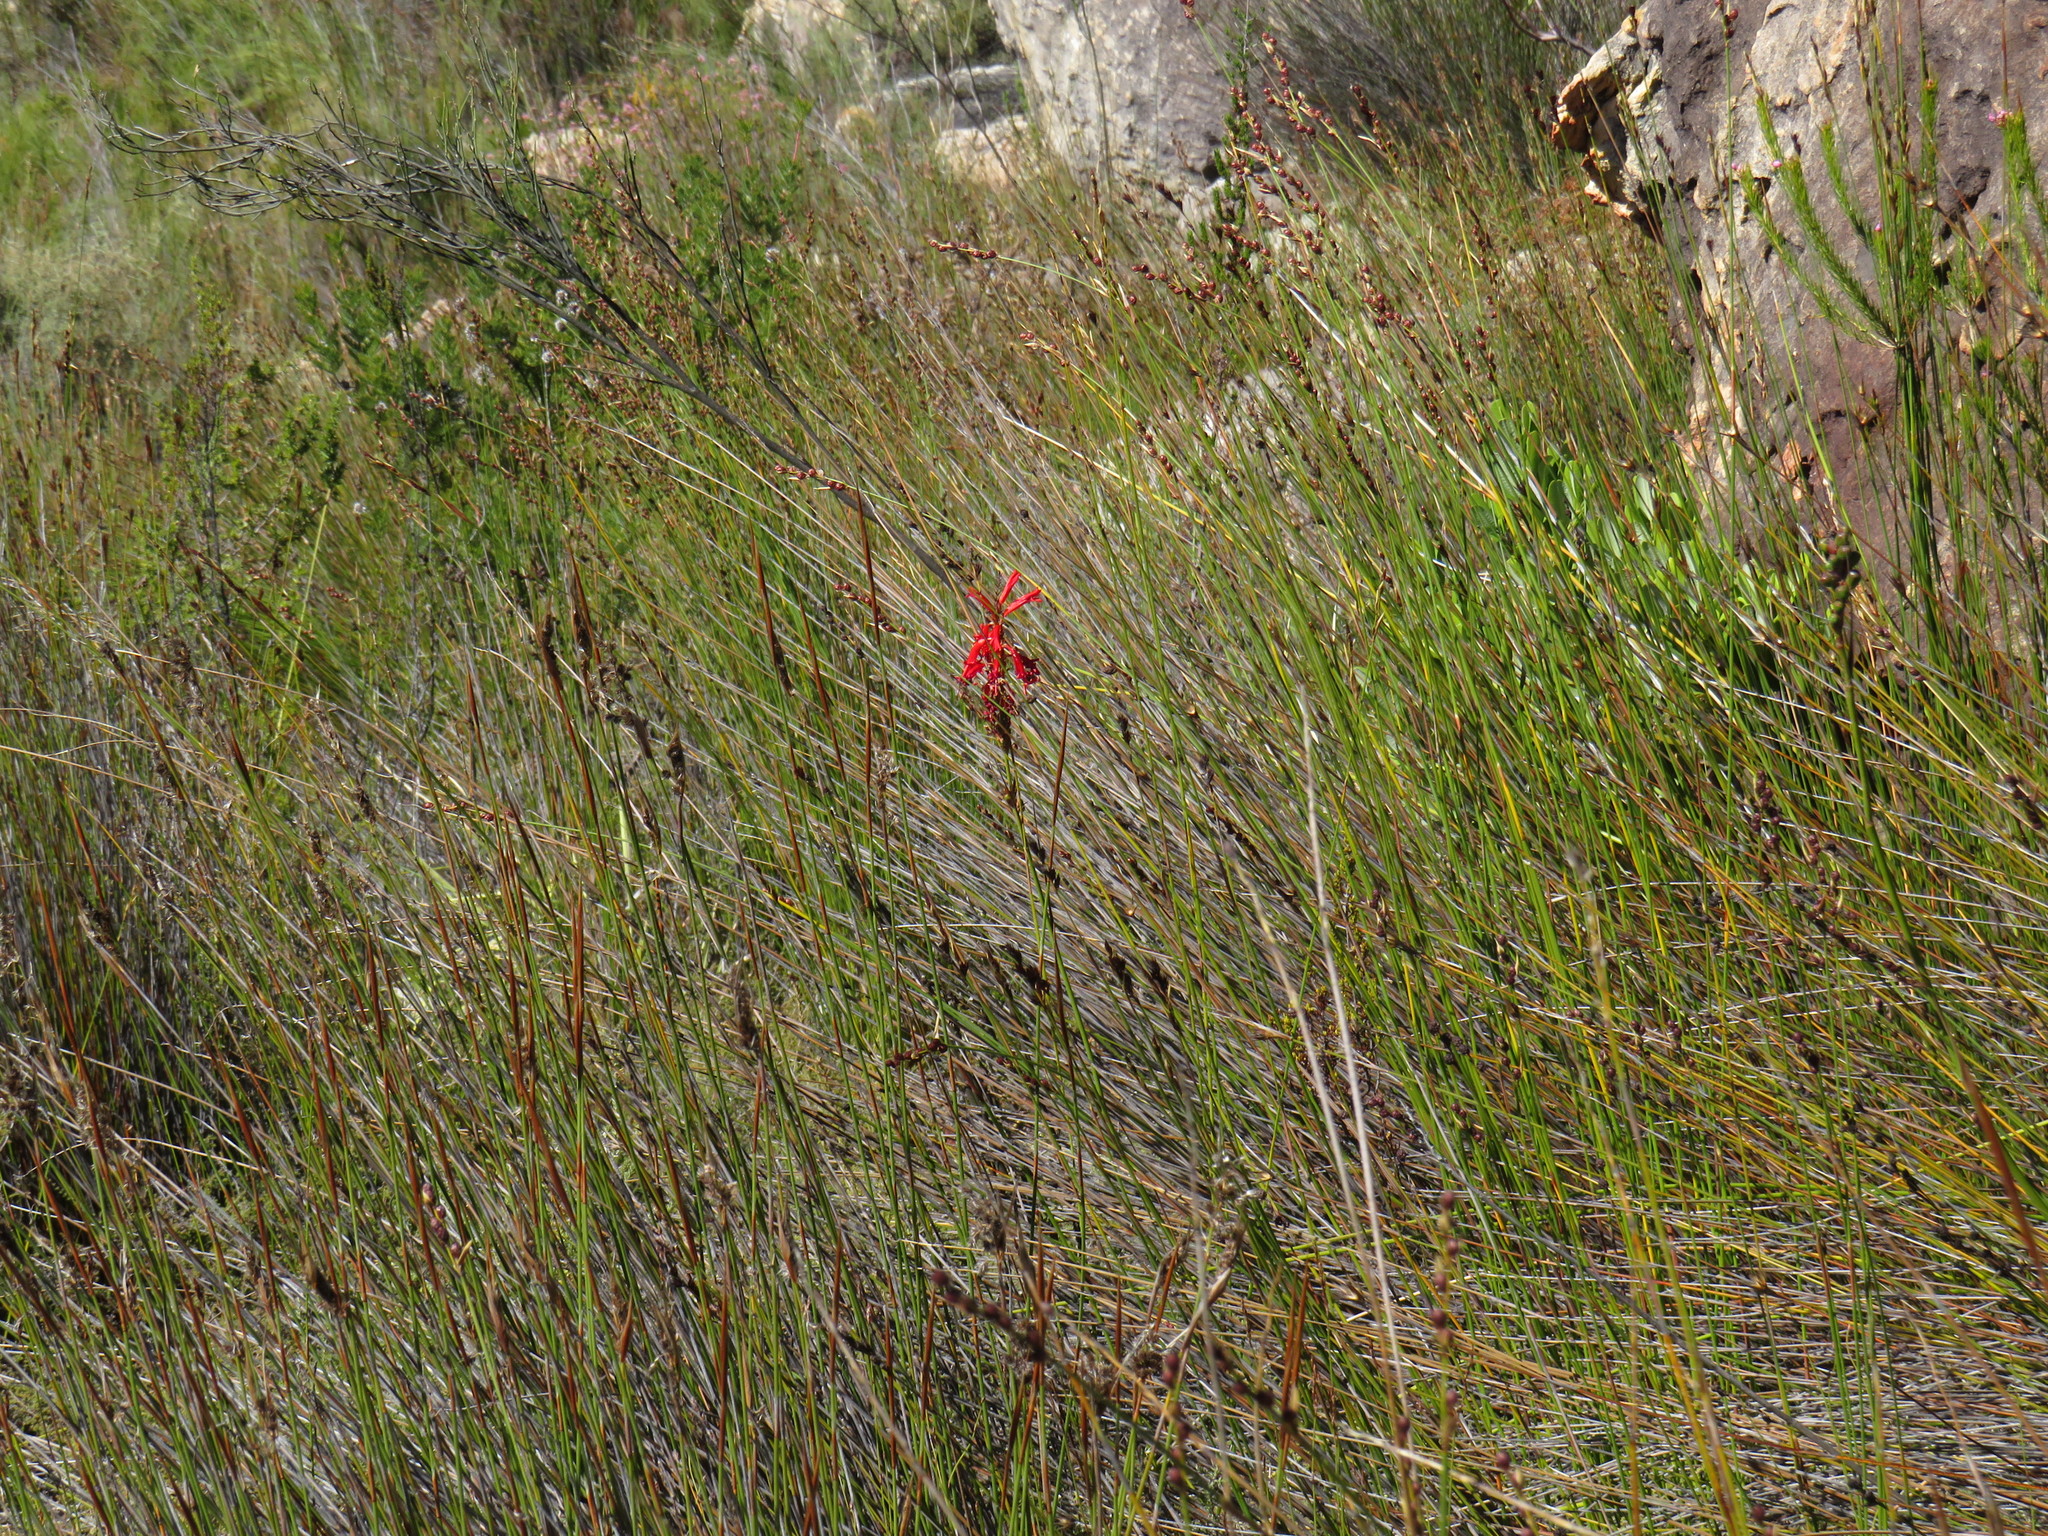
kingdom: Plantae
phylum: Tracheophyta
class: Liliopsida
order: Asparagales
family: Iridaceae
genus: Tritoniopsis
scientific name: Tritoniopsis triticea
